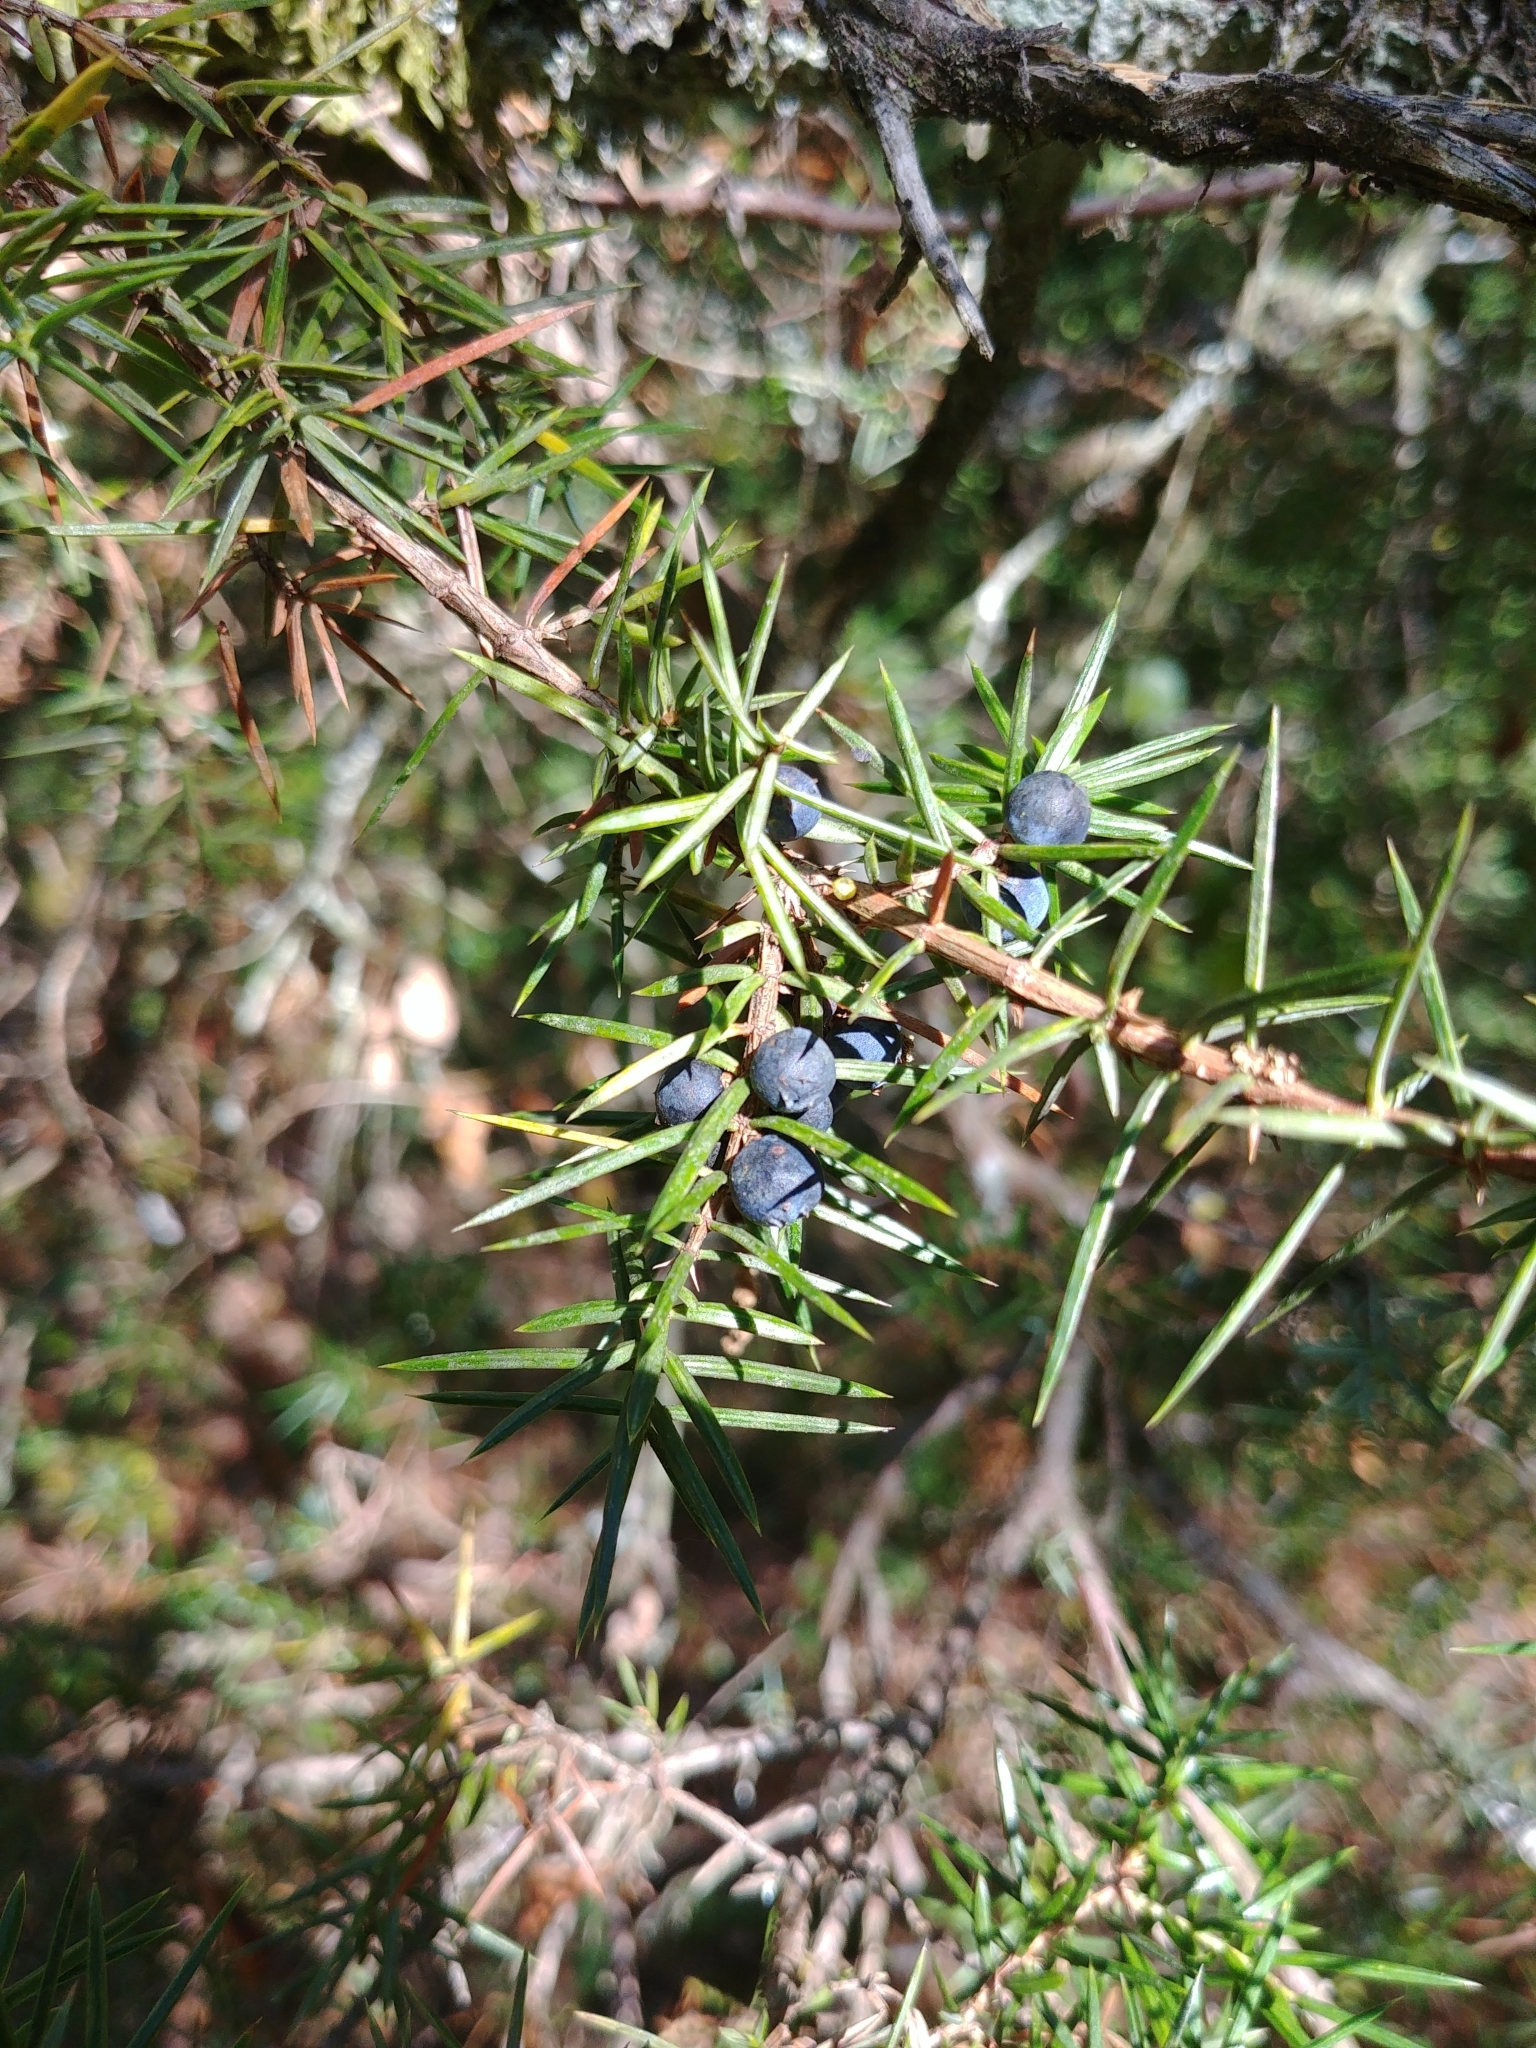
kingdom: Plantae
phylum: Tracheophyta
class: Pinopsida
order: Pinales
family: Cupressaceae
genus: Juniperus
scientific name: Juniperus communis
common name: Common juniper
